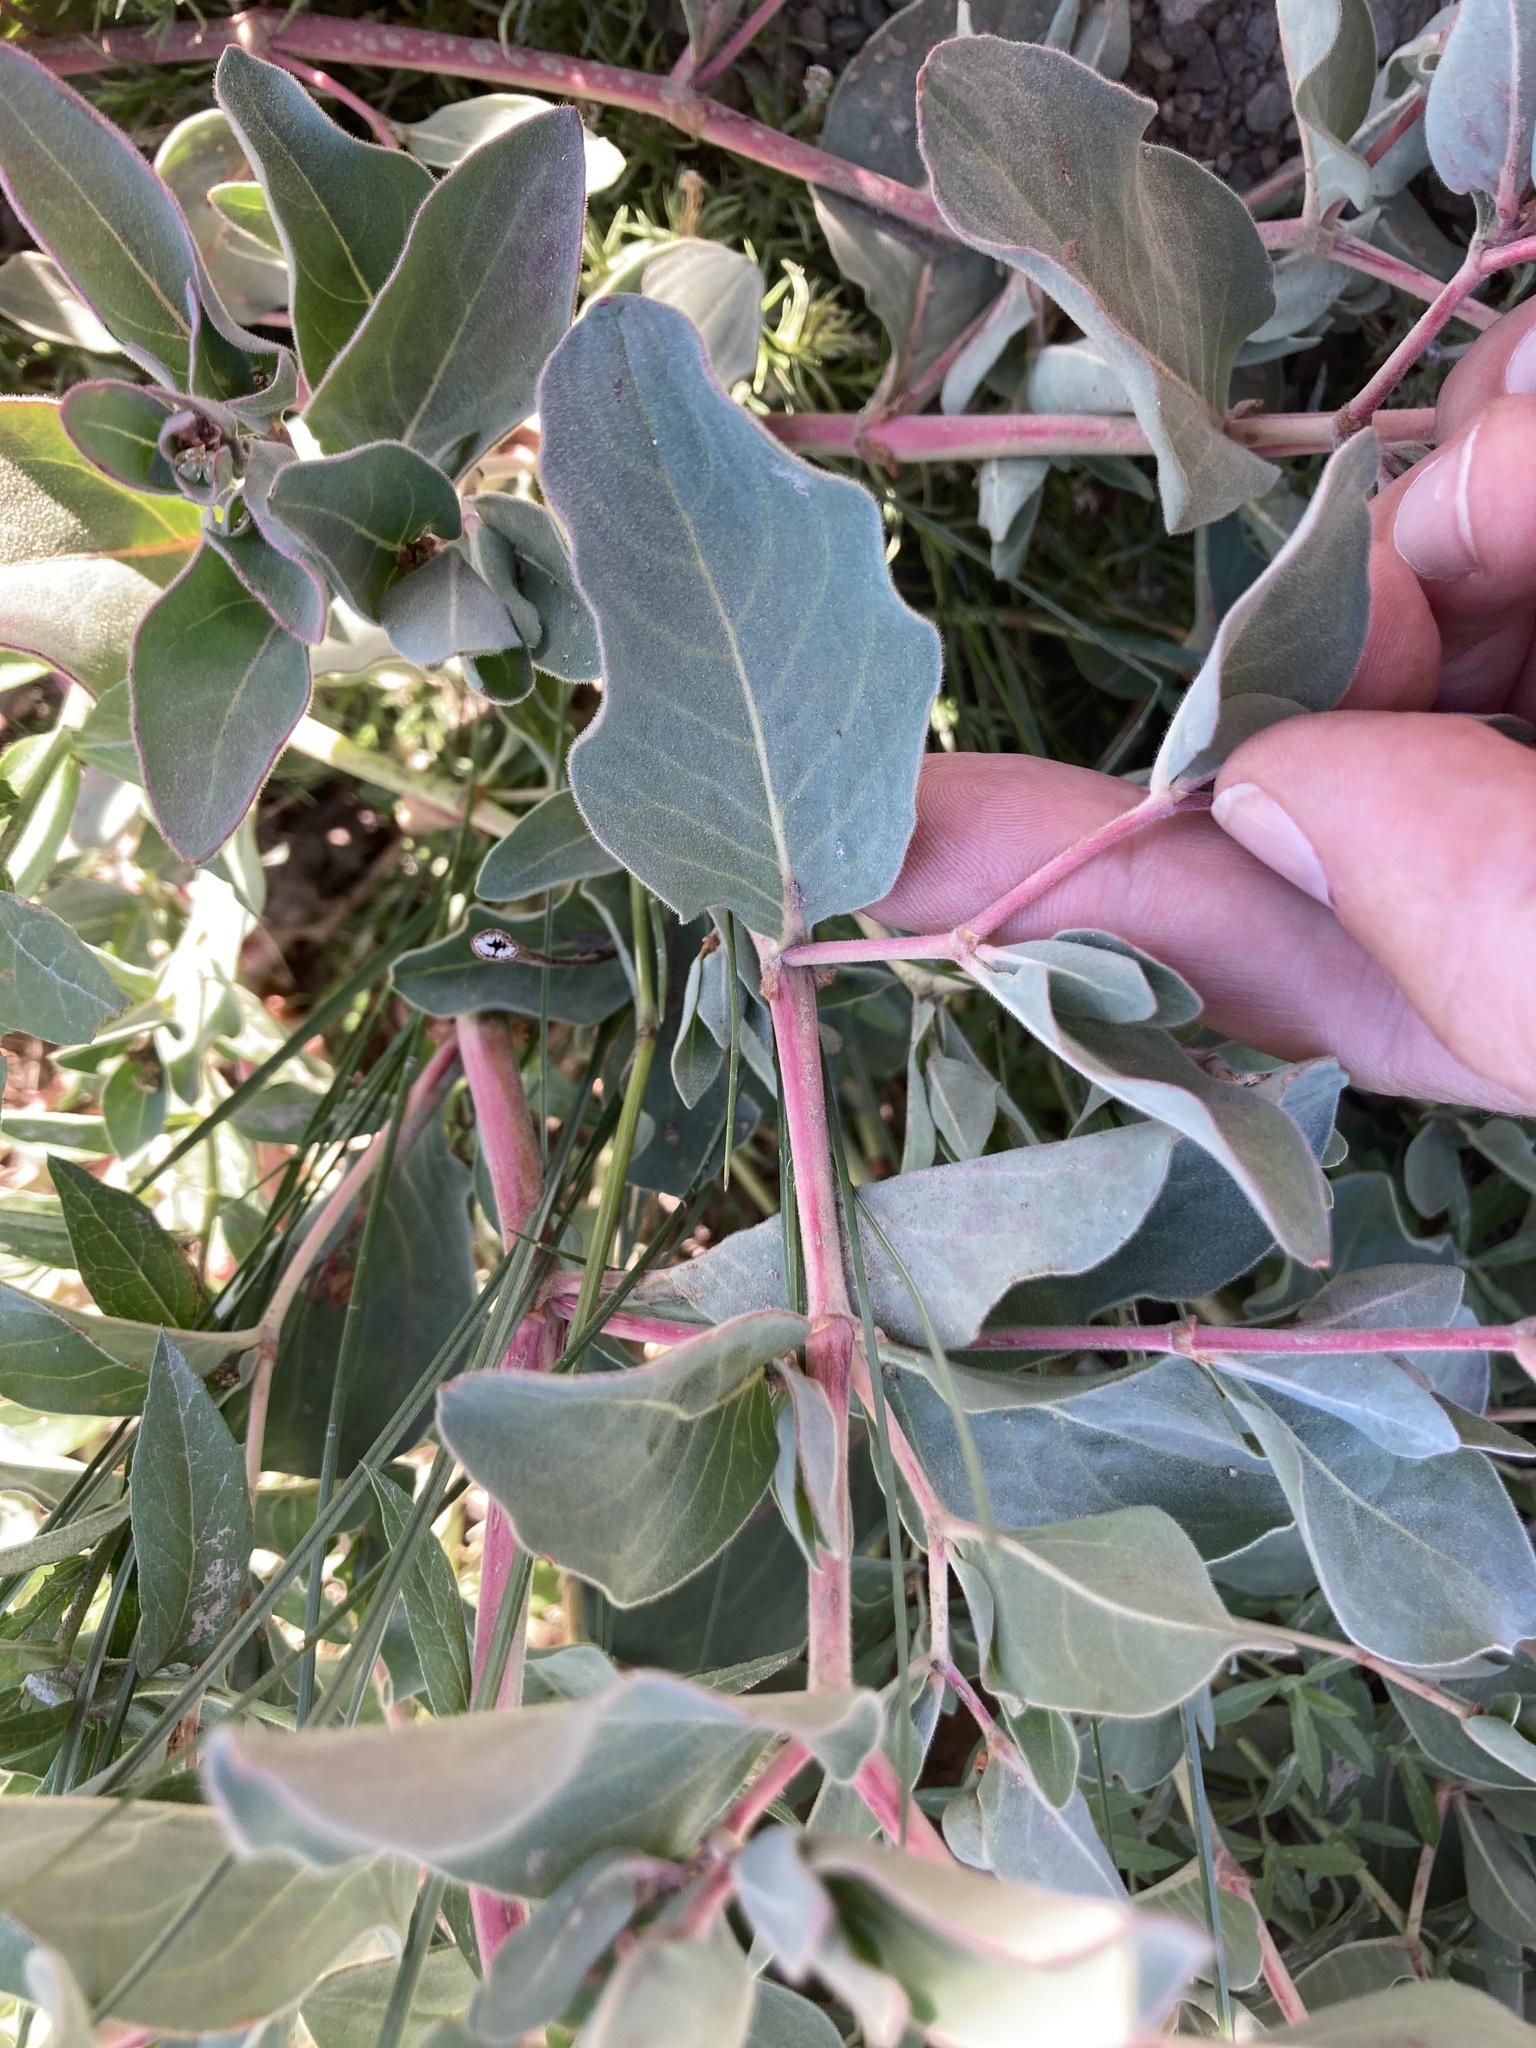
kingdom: Plantae
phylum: Tracheophyta
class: Magnoliopsida
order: Caryophyllales
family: Polygonaceae
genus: Koenigia
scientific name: Koenigia davisiae
